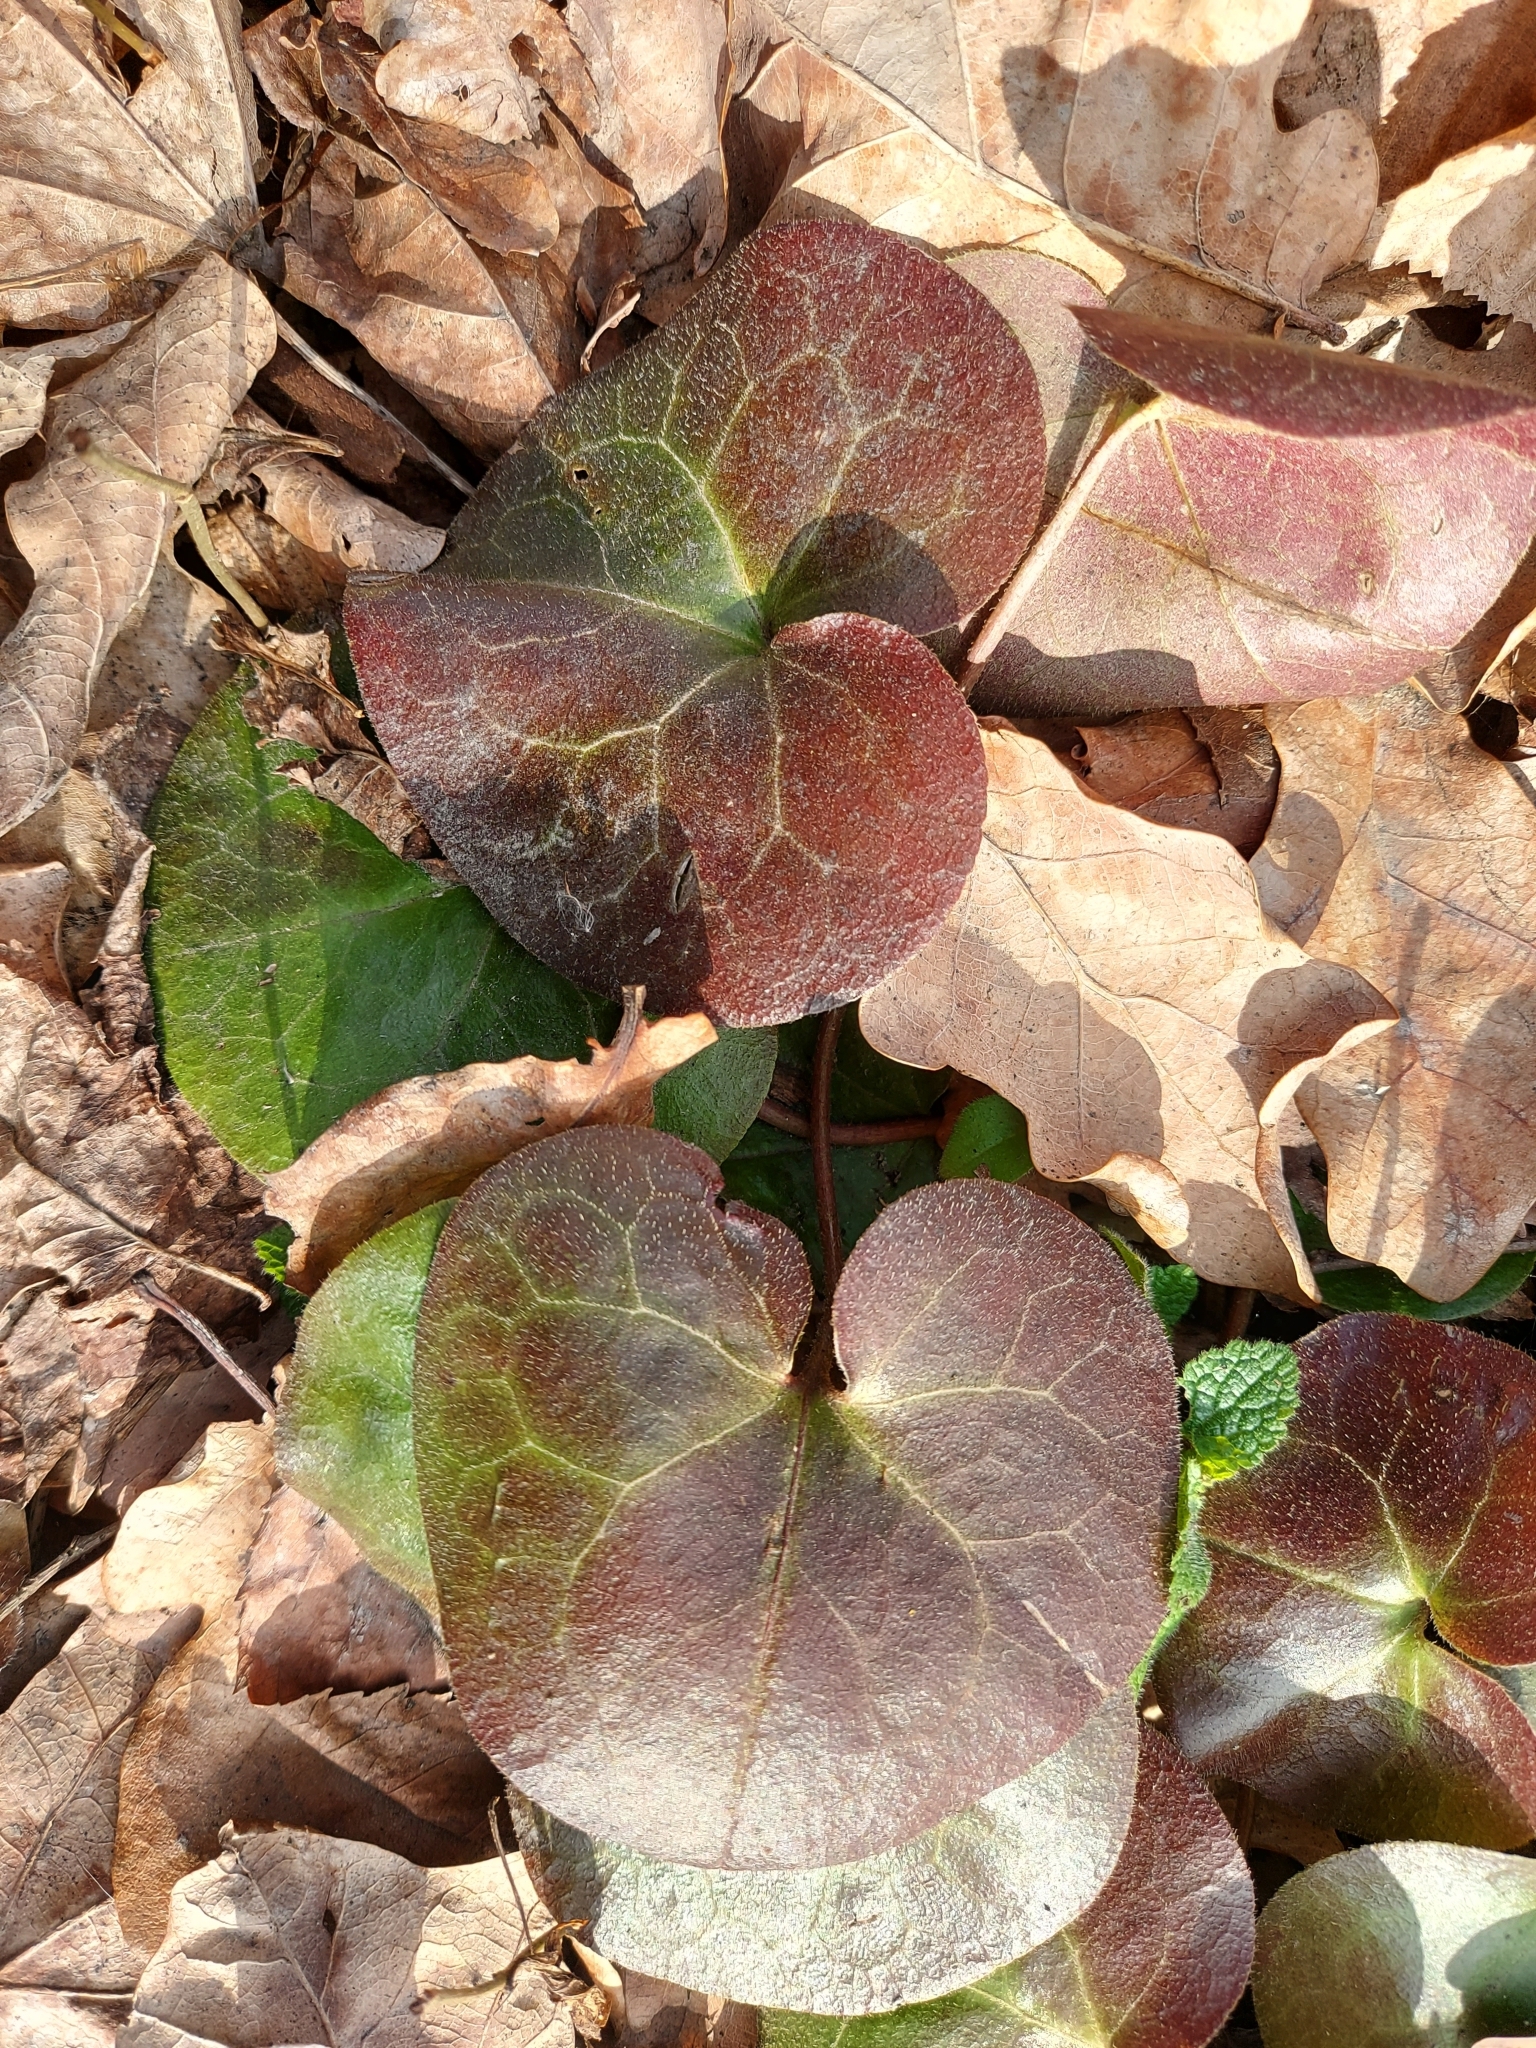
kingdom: Plantae
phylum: Tracheophyta
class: Magnoliopsida
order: Piperales
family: Aristolochiaceae
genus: Asarum
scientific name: Asarum europaeum
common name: Asarabacca
